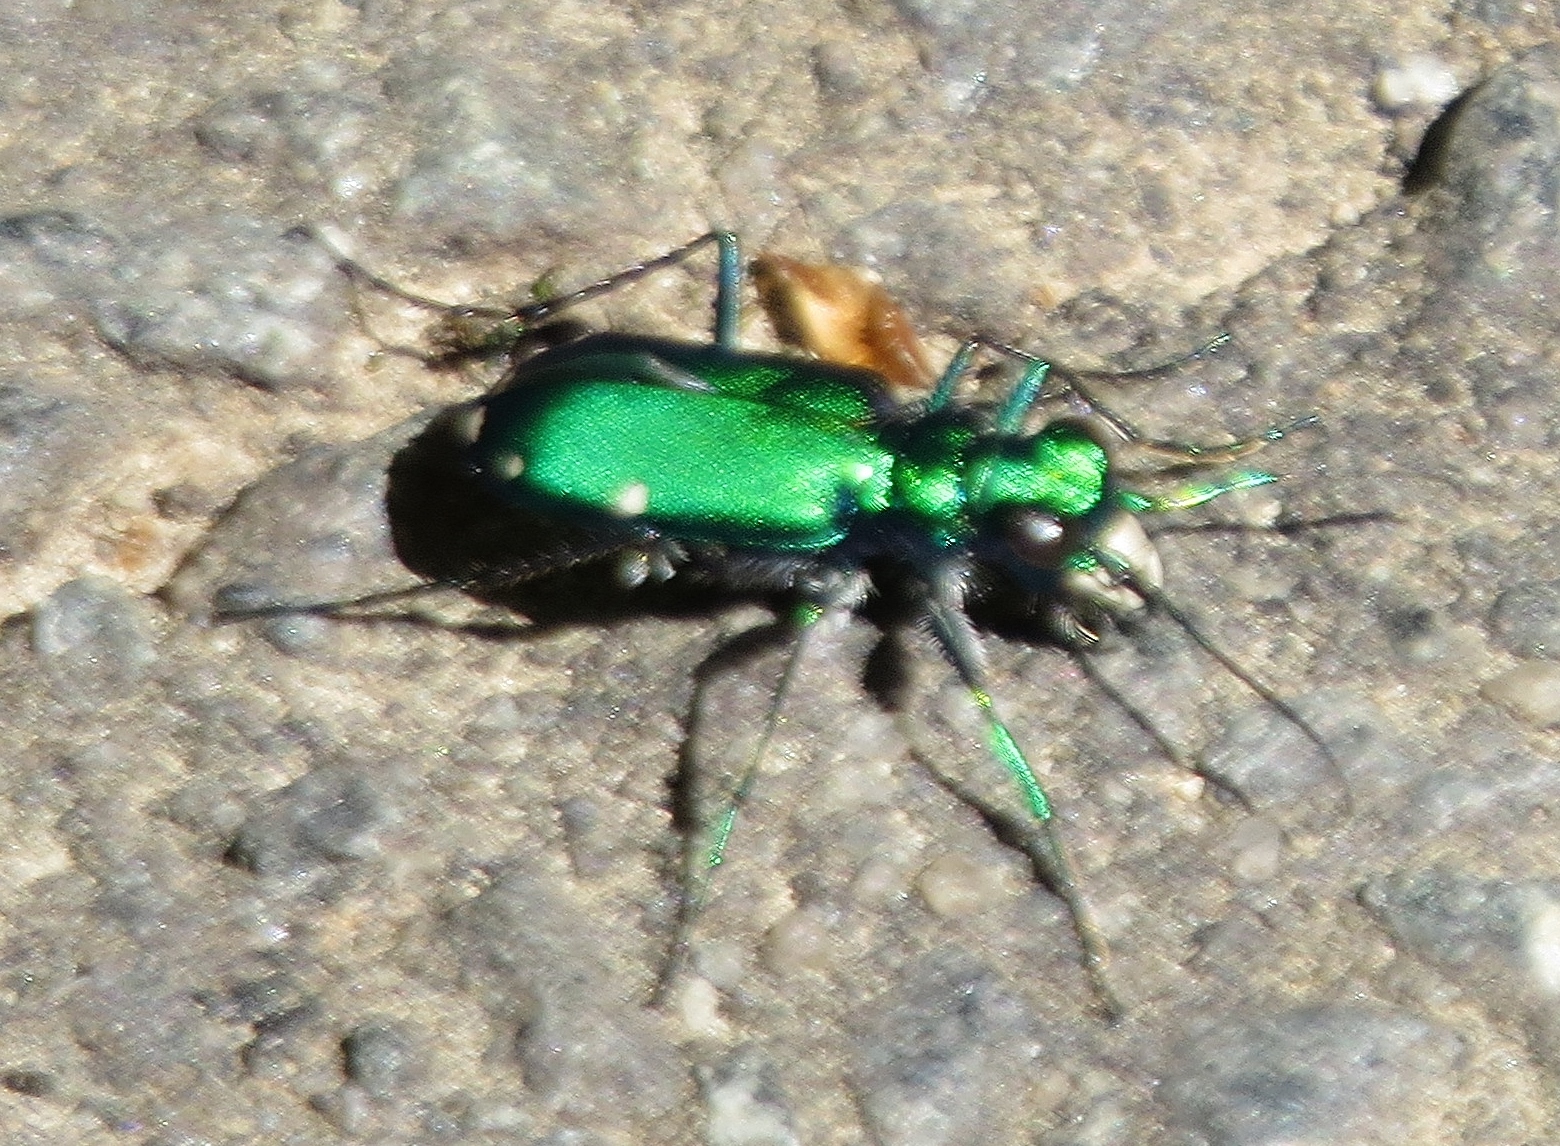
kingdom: Animalia
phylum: Arthropoda
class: Insecta
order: Coleoptera
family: Carabidae
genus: Cicindela
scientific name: Cicindela sexguttata
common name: Six-spotted tiger beetle
